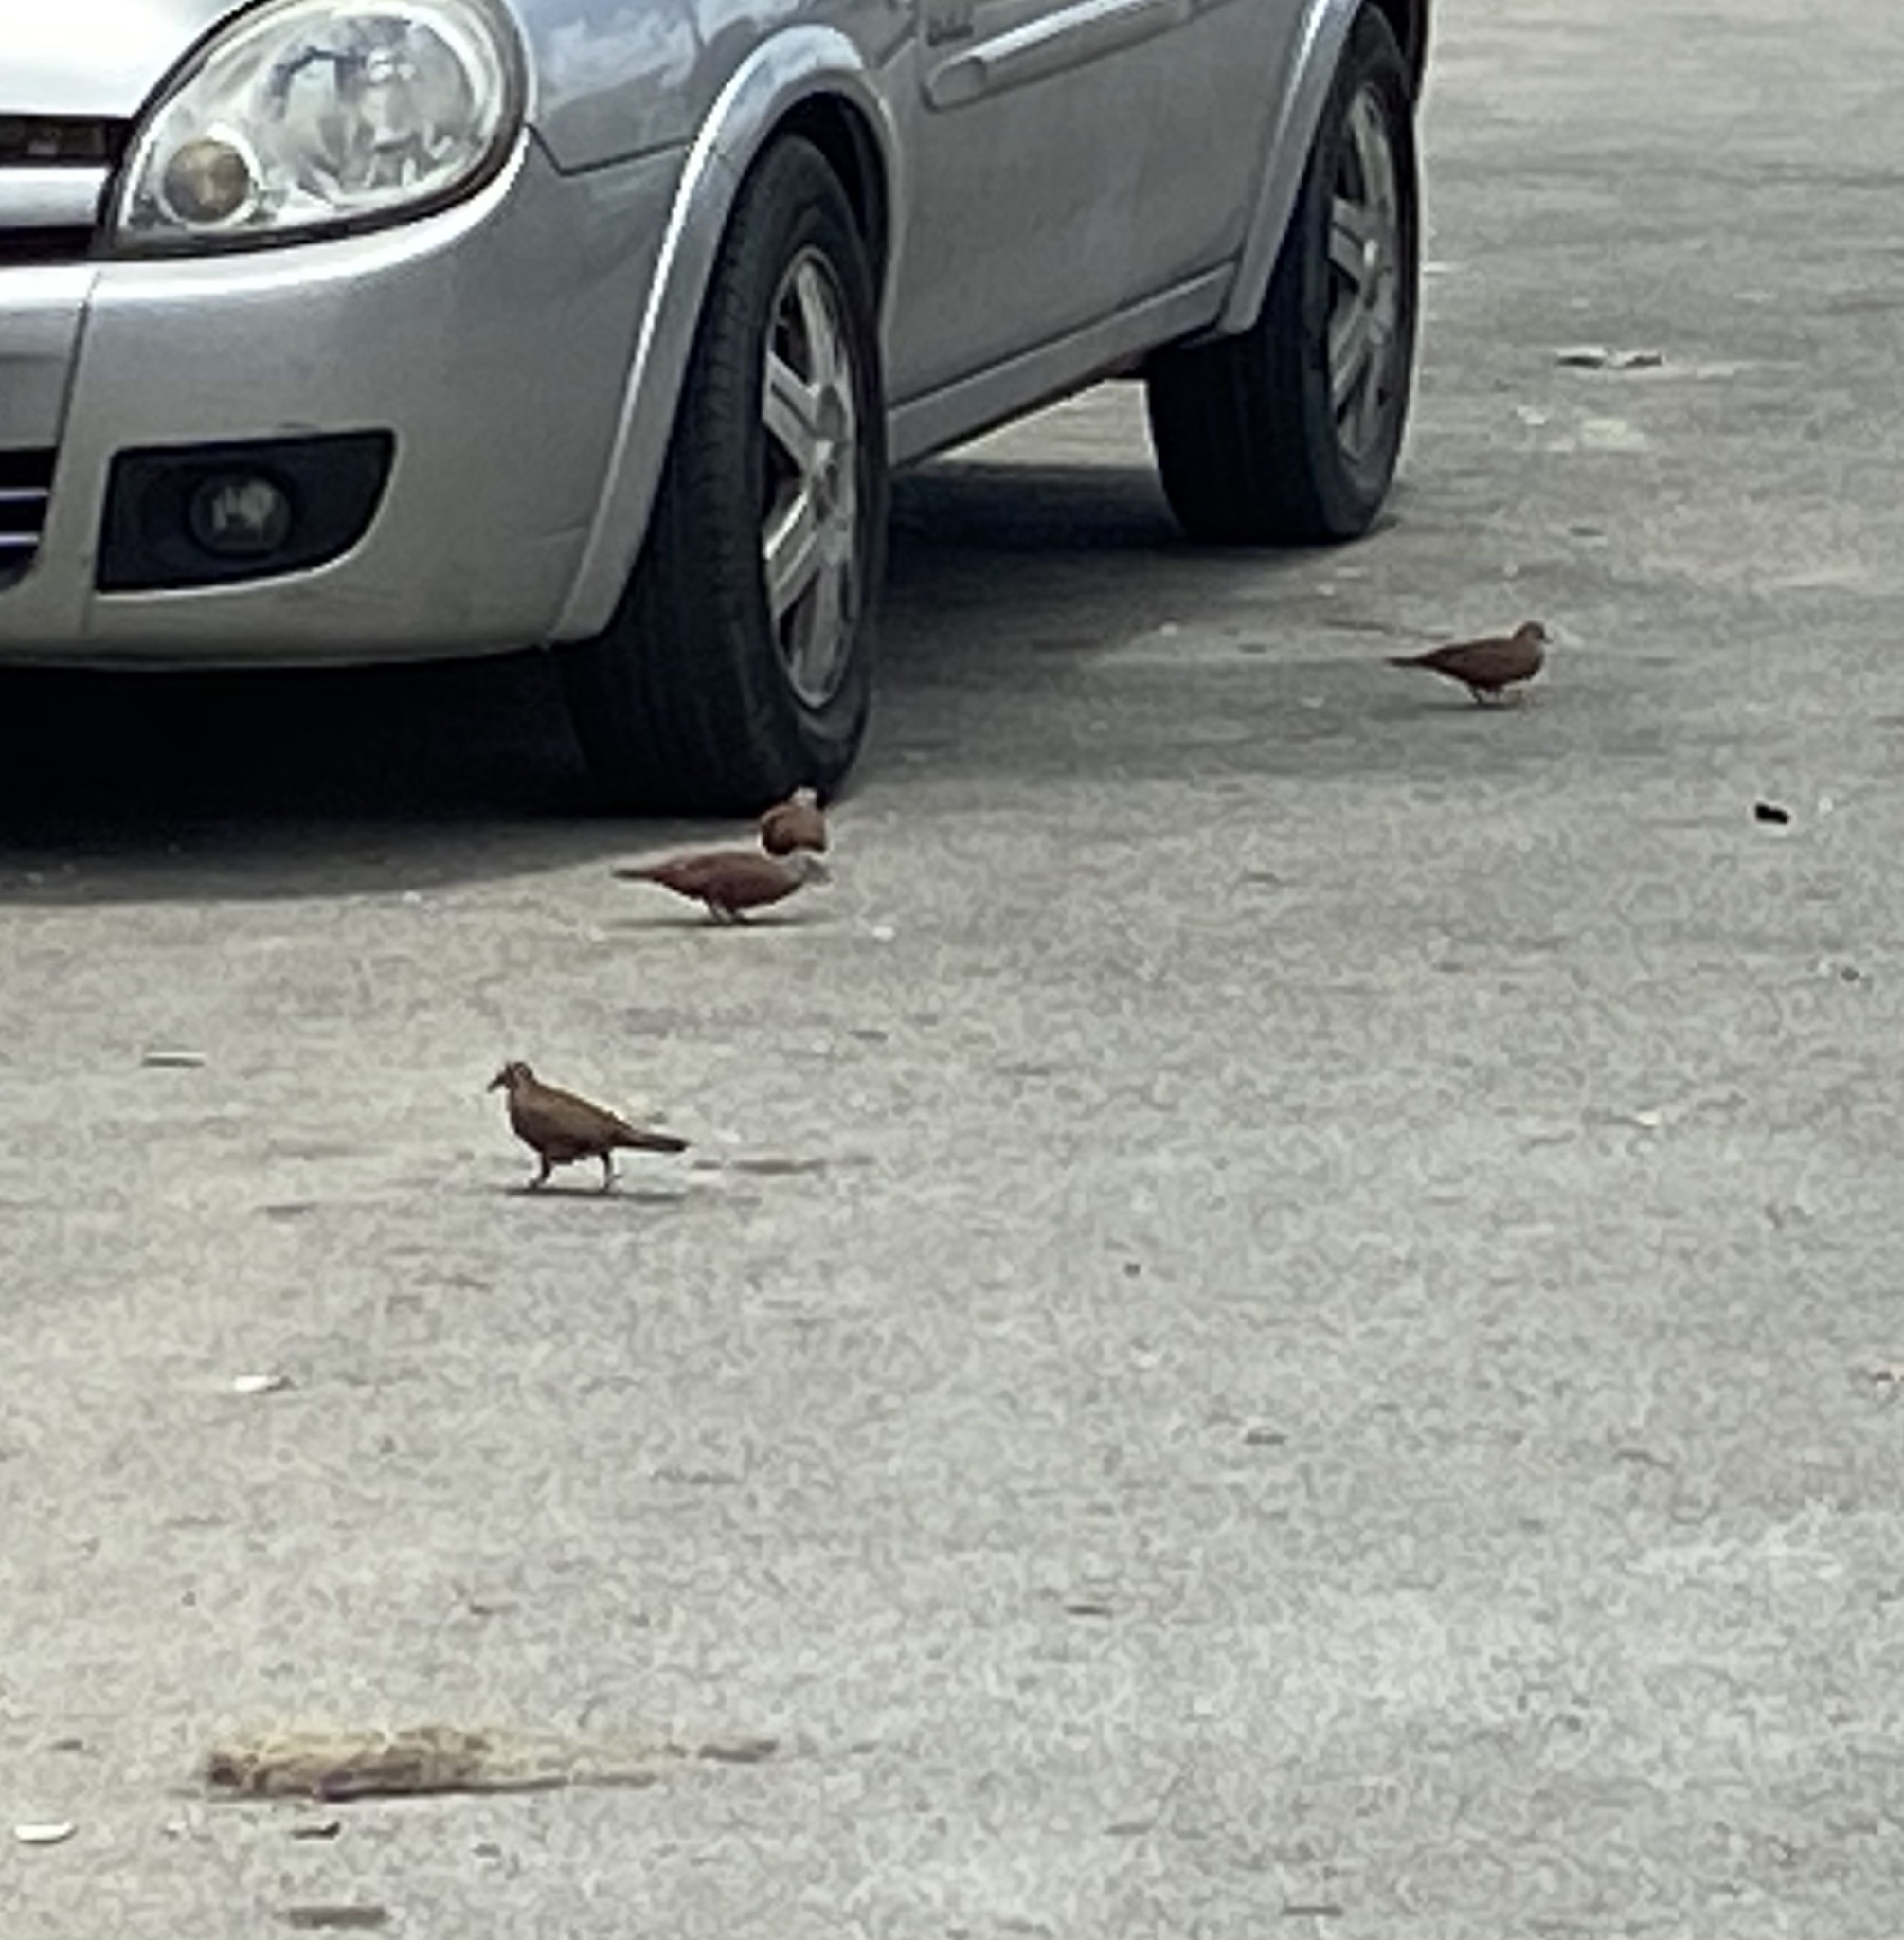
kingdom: Animalia
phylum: Chordata
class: Aves
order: Columbiformes
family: Columbidae
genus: Columbina
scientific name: Columbina talpacoti
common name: Ruddy ground dove
